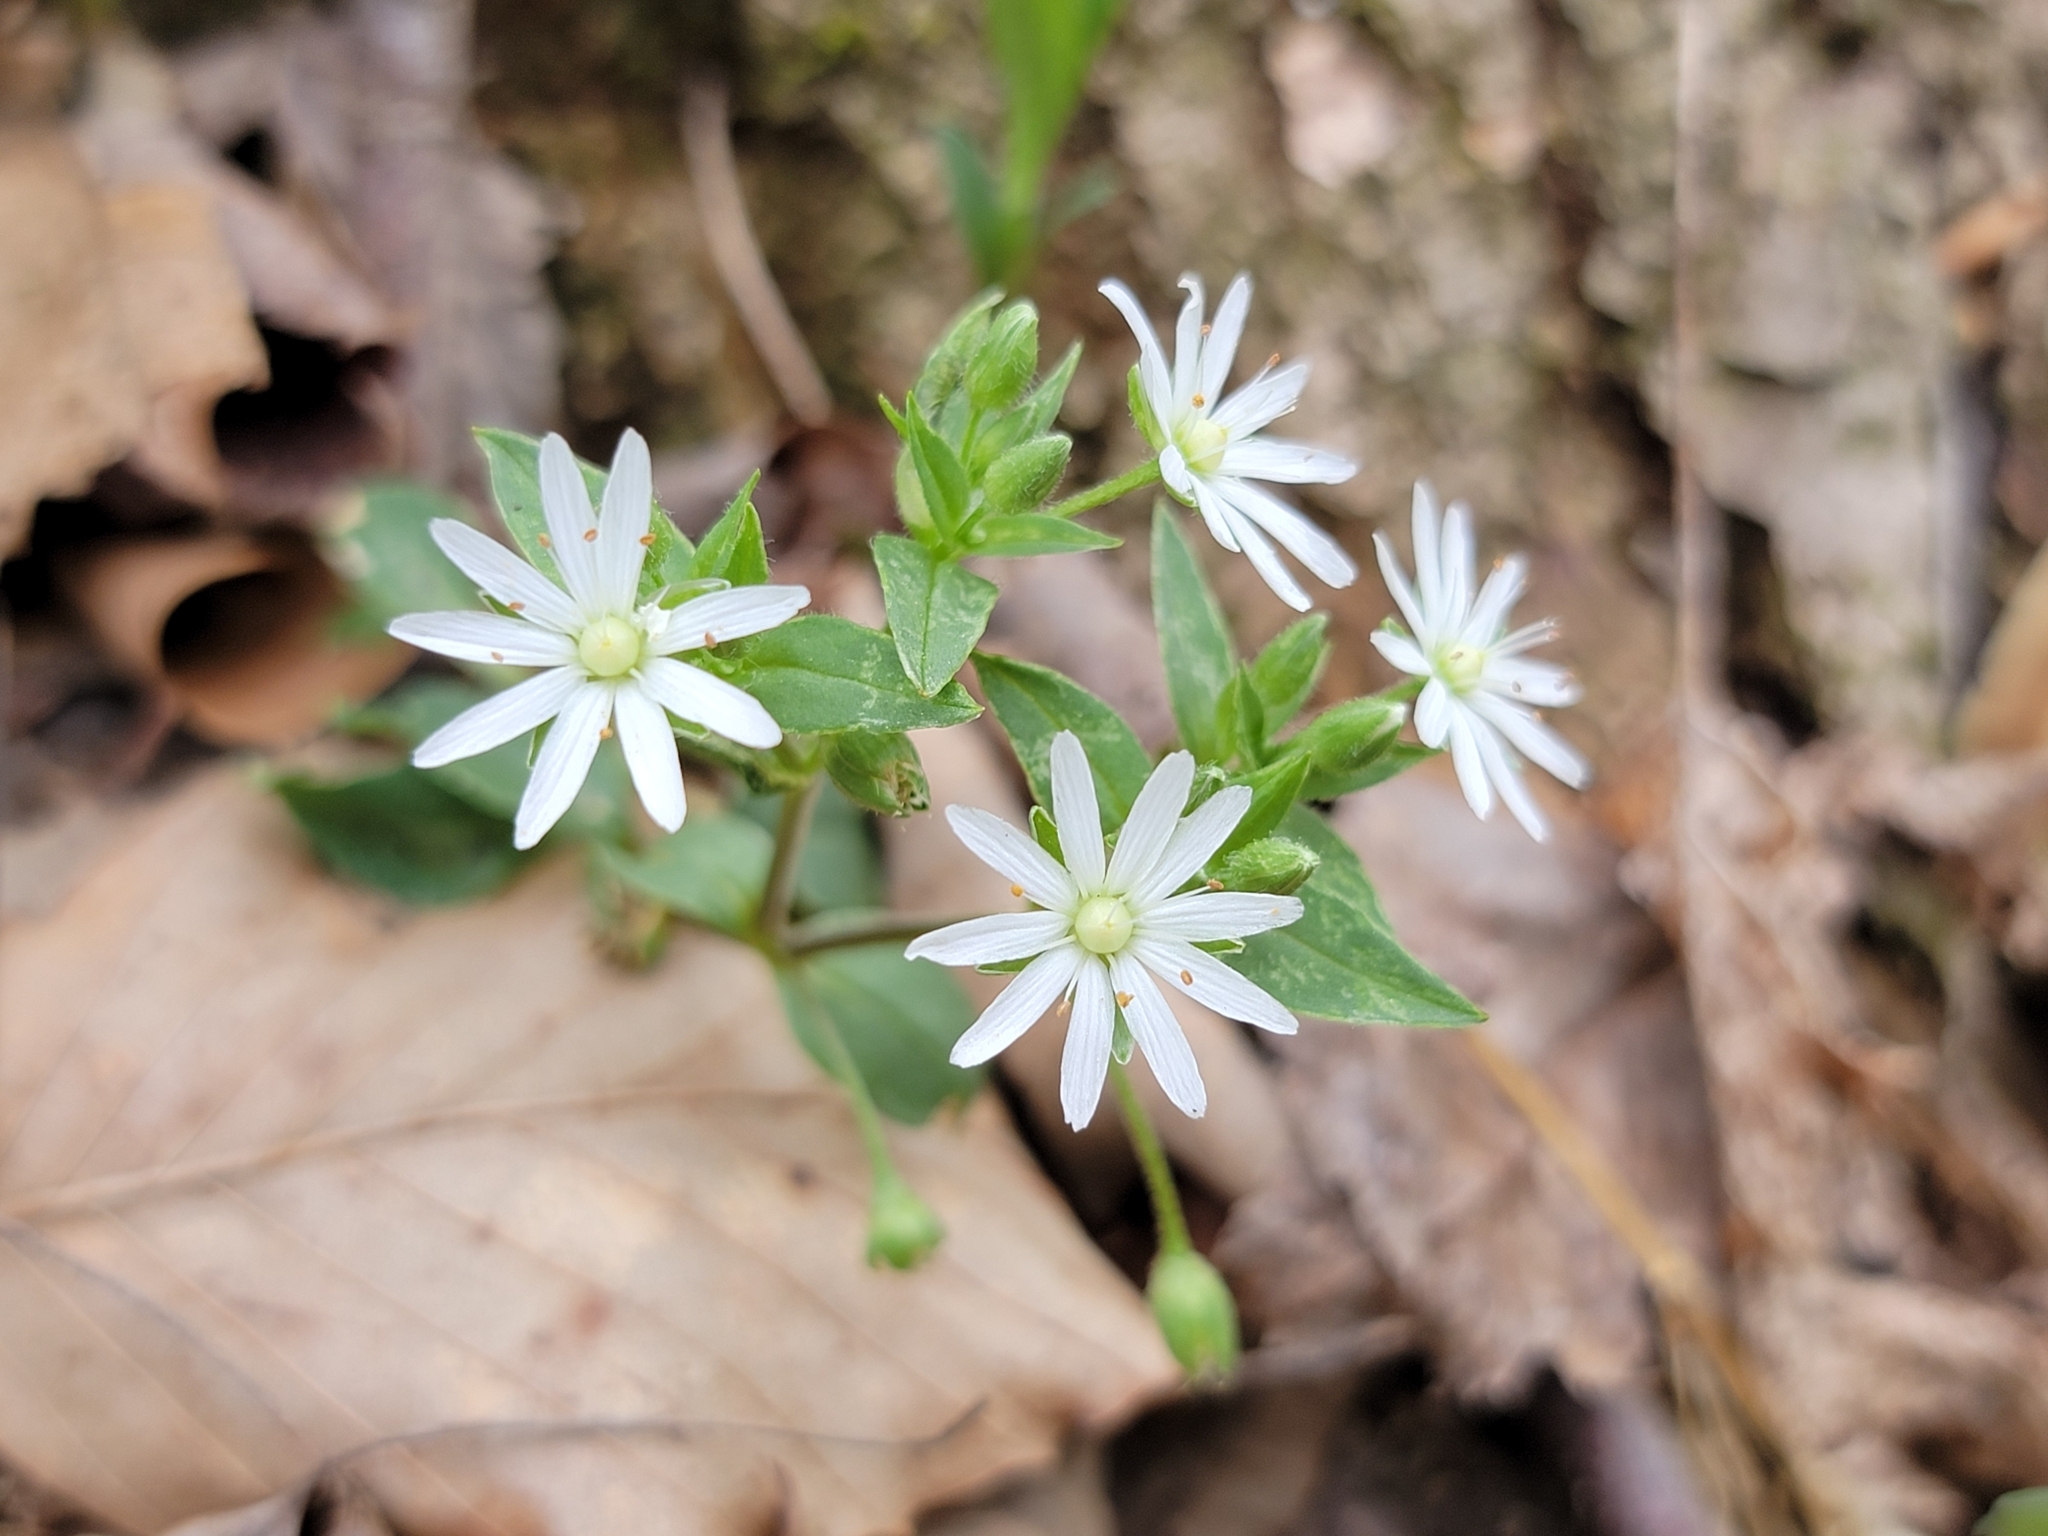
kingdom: Plantae
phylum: Tracheophyta
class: Magnoliopsida
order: Caryophyllales
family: Caryophyllaceae
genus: Stellaria
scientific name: Stellaria pubera
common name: Star chickweed
